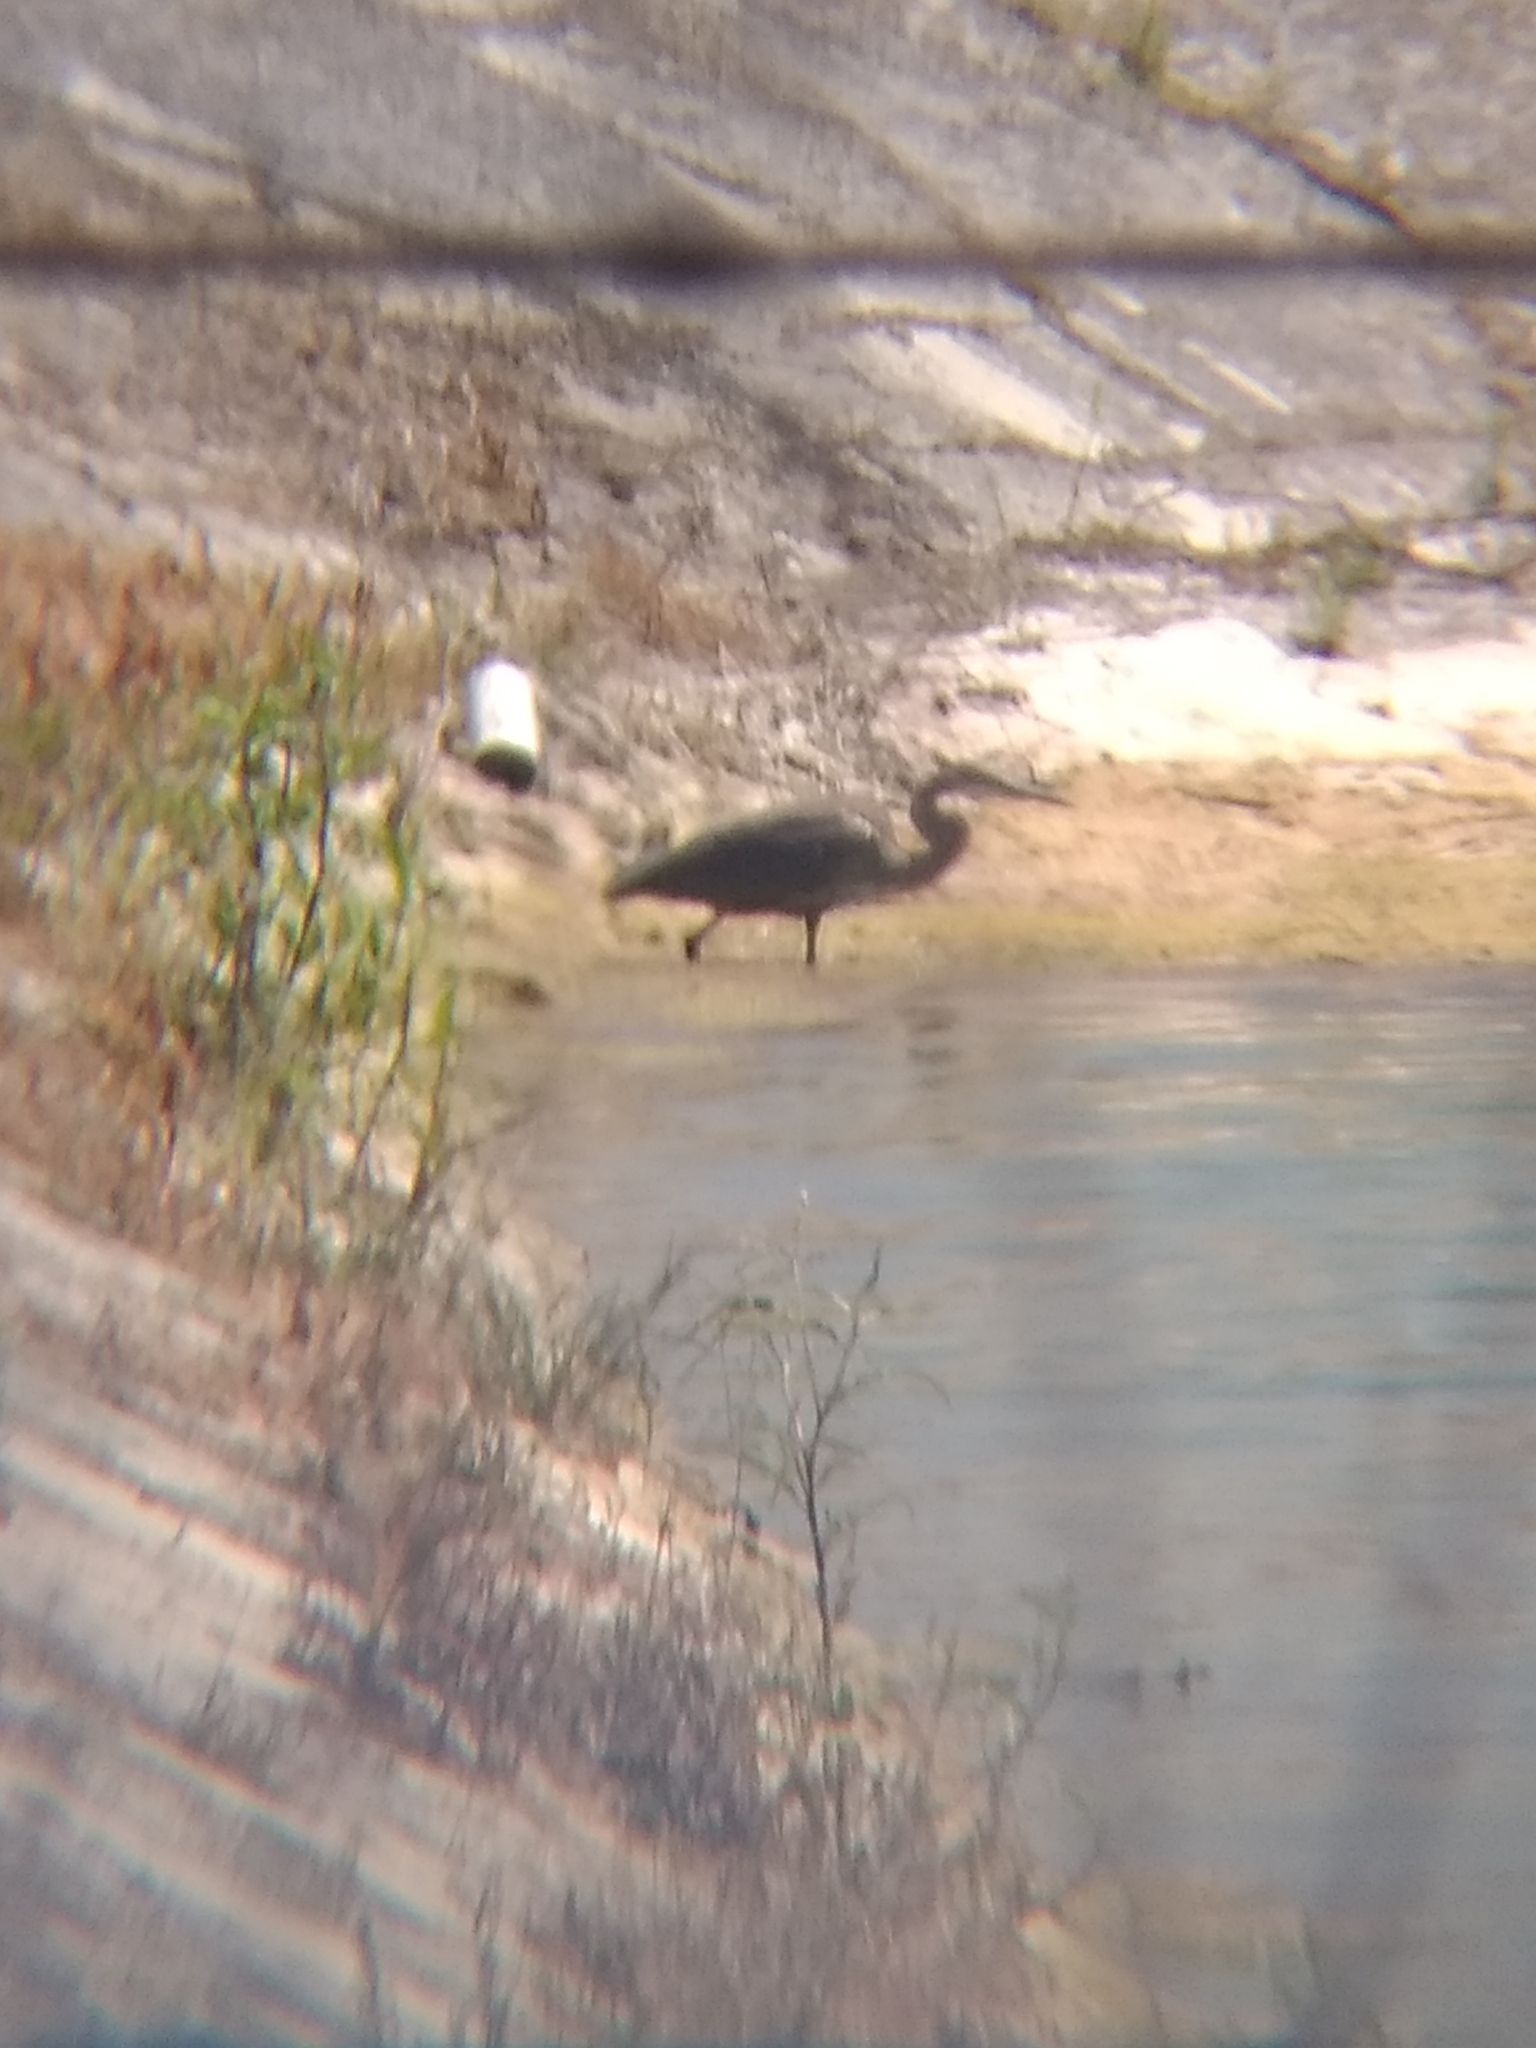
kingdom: Animalia
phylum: Chordata
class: Aves
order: Pelecaniformes
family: Ardeidae
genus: Ardea
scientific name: Ardea herodias
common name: Great blue heron
